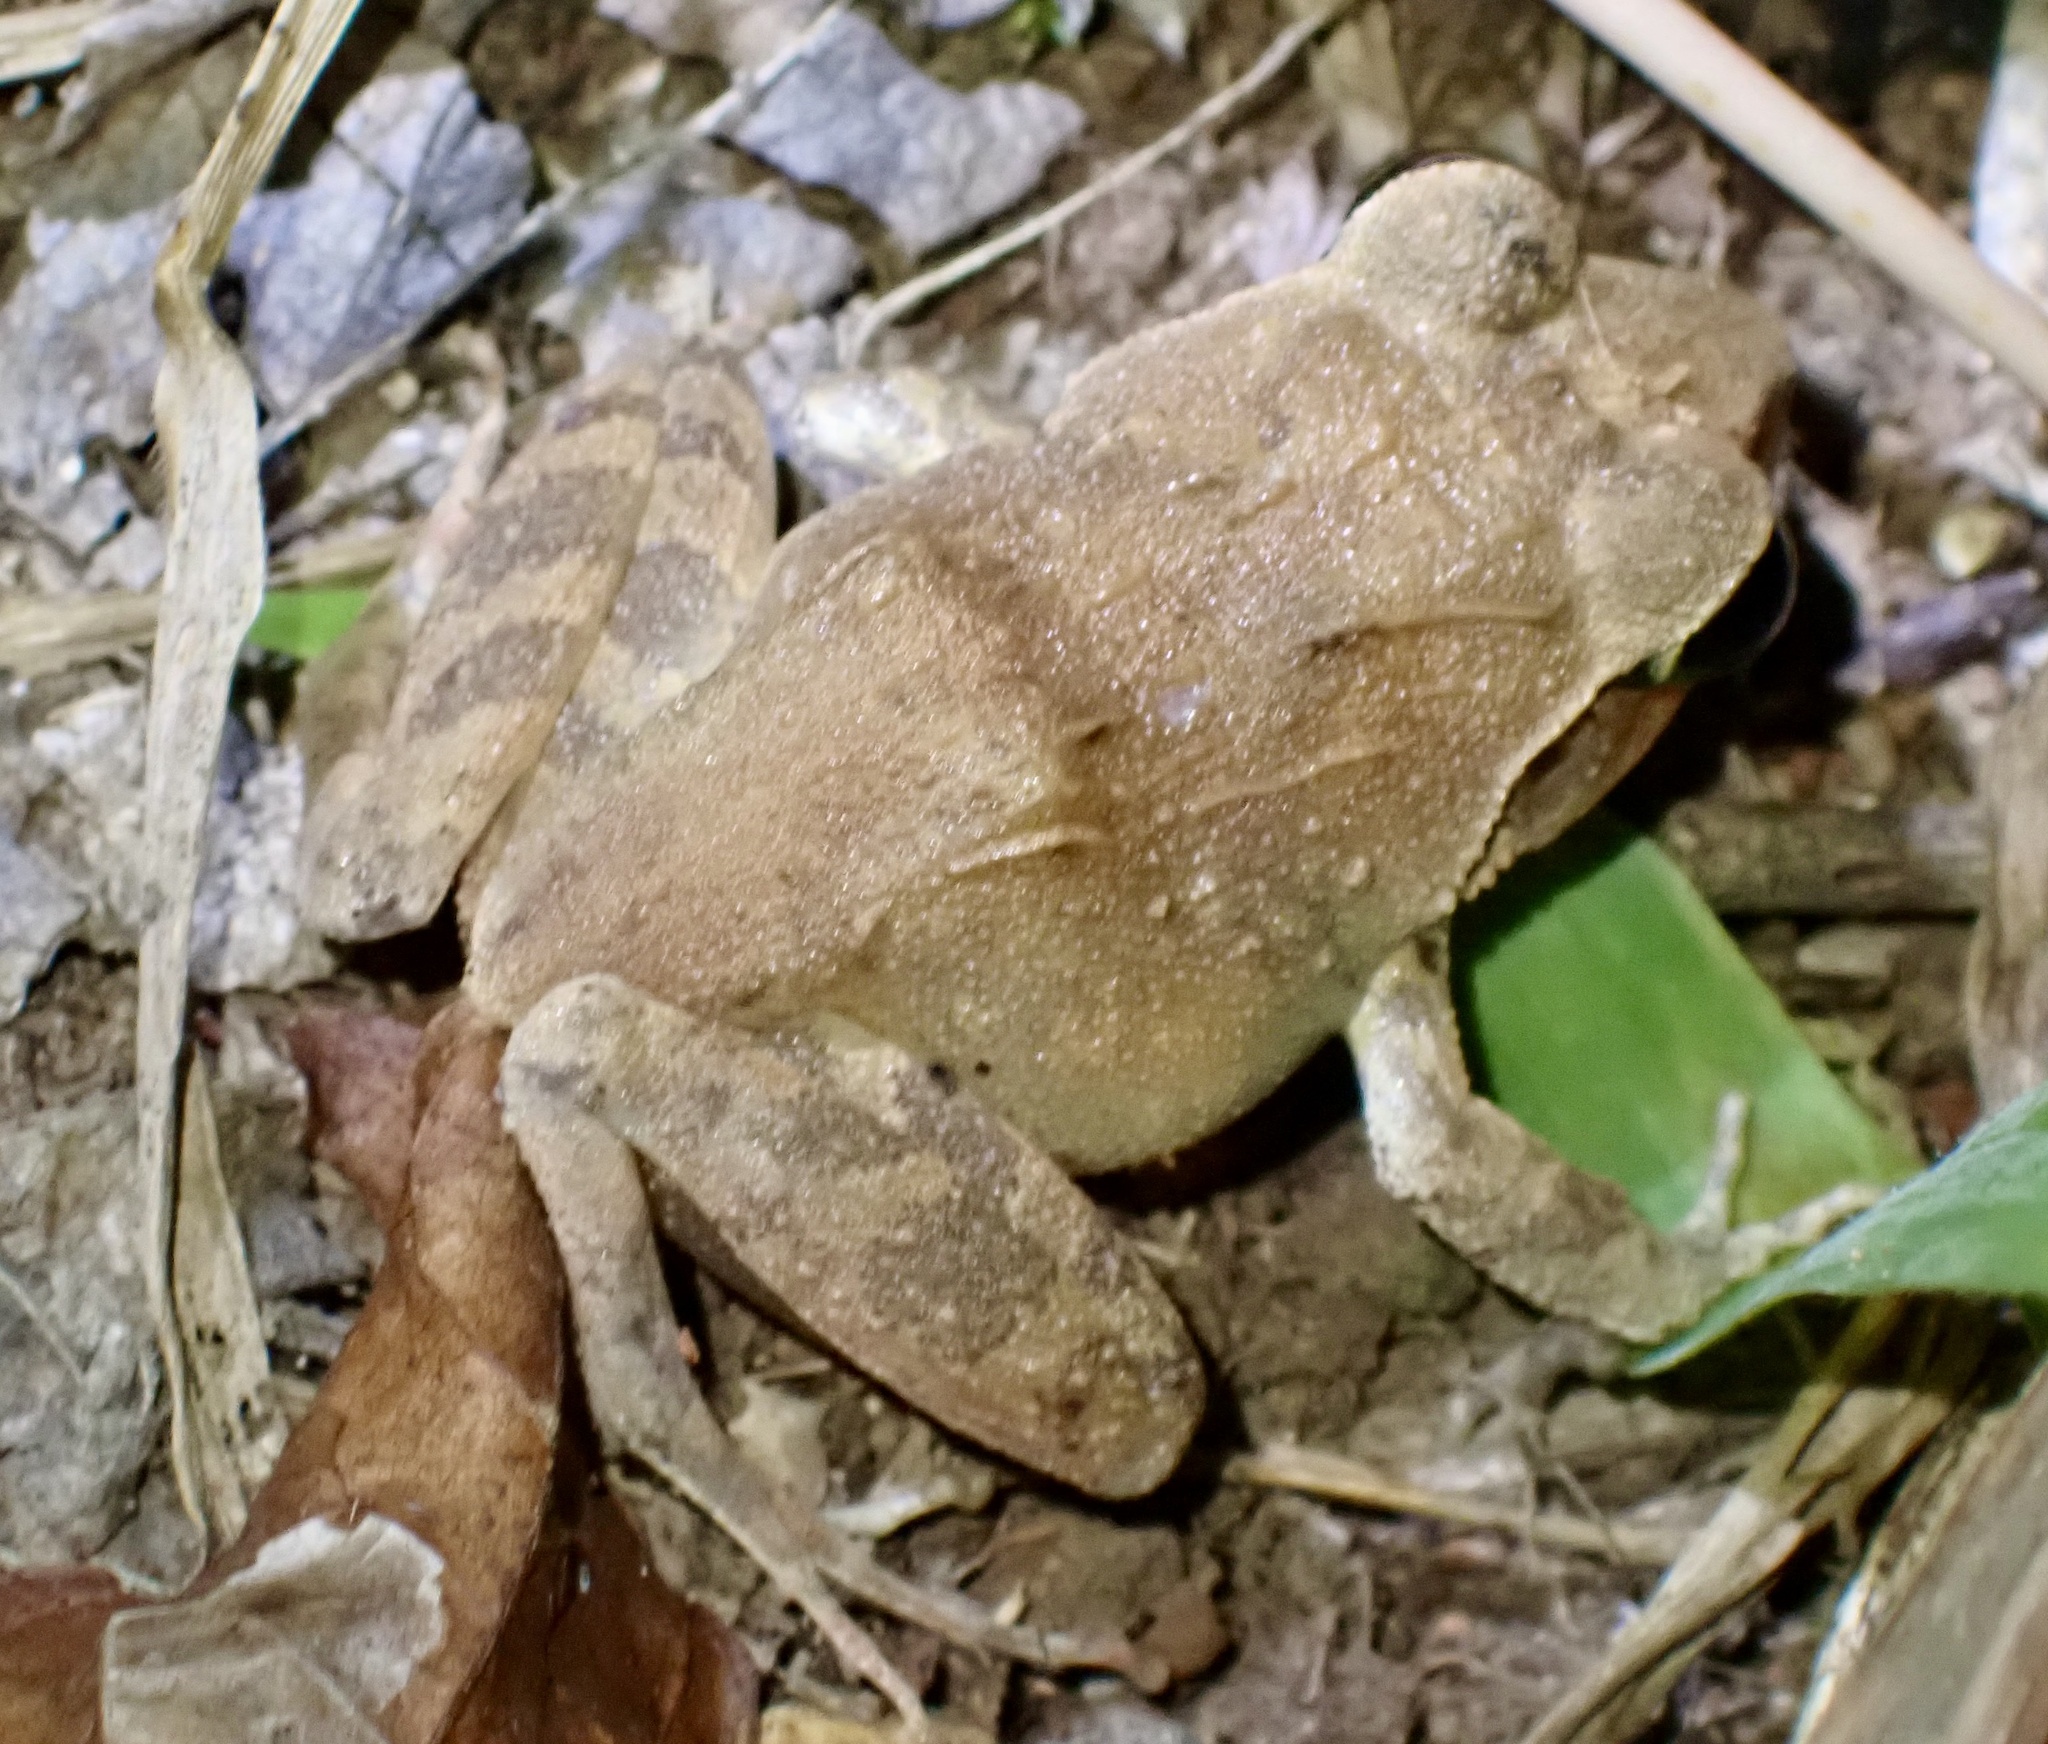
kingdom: Animalia
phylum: Chordata
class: Amphibia
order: Anura
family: Ceratobatrachidae
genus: Cornufer
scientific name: Cornufer batantae
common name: Batanta wrinkled ground frog
